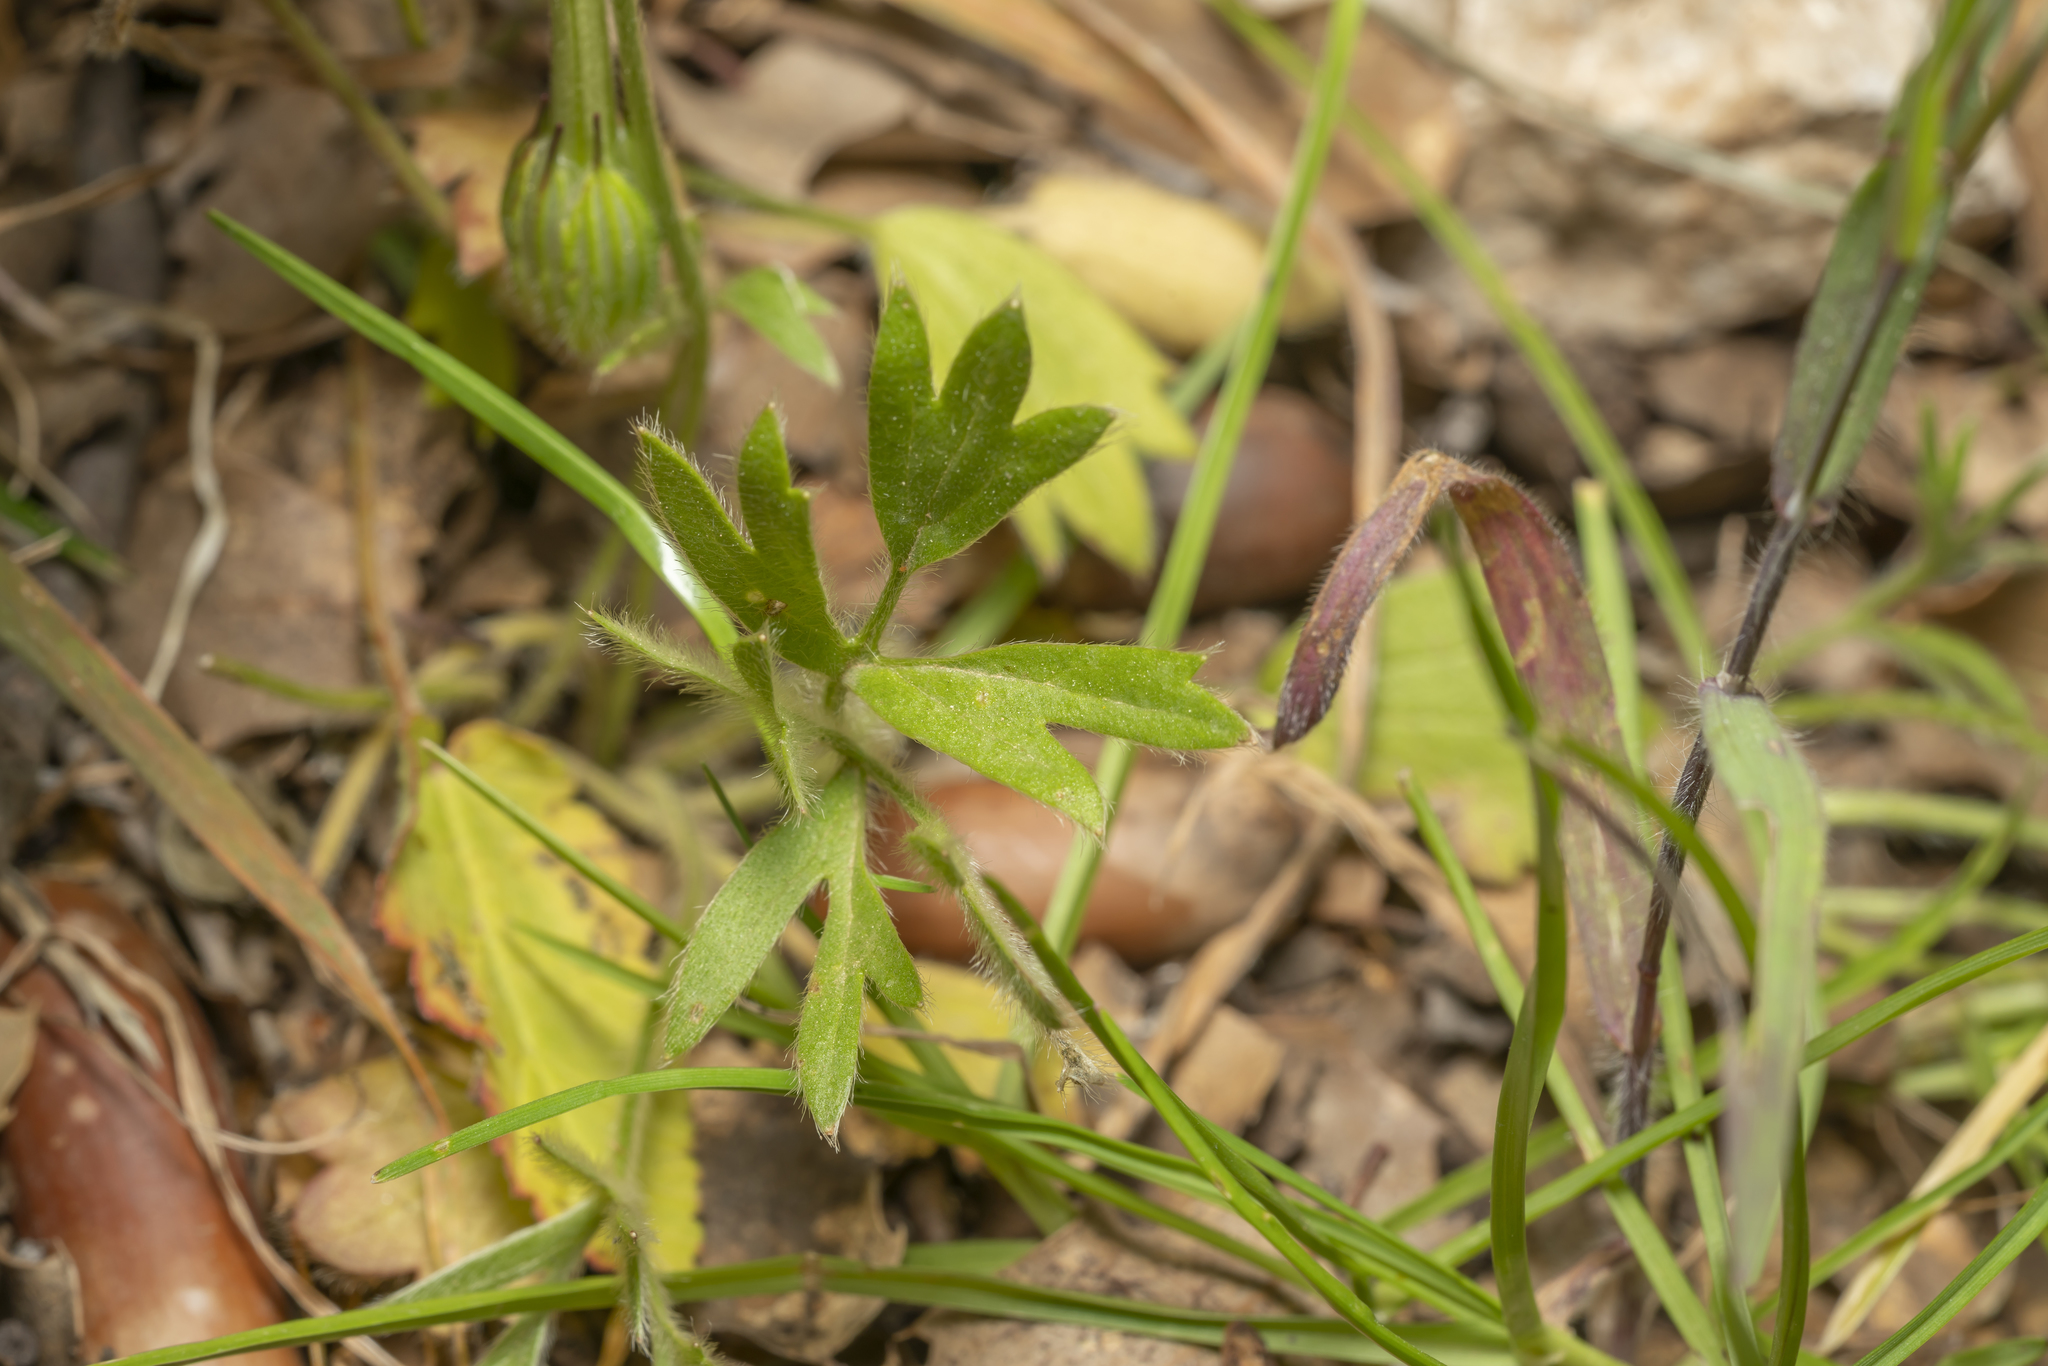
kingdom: Plantae
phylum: Tracheophyta
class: Magnoliopsida
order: Ranunculales
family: Ranunculaceae
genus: Ranunculus
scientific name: Ranunculus paludosus
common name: Jersey buttercup
